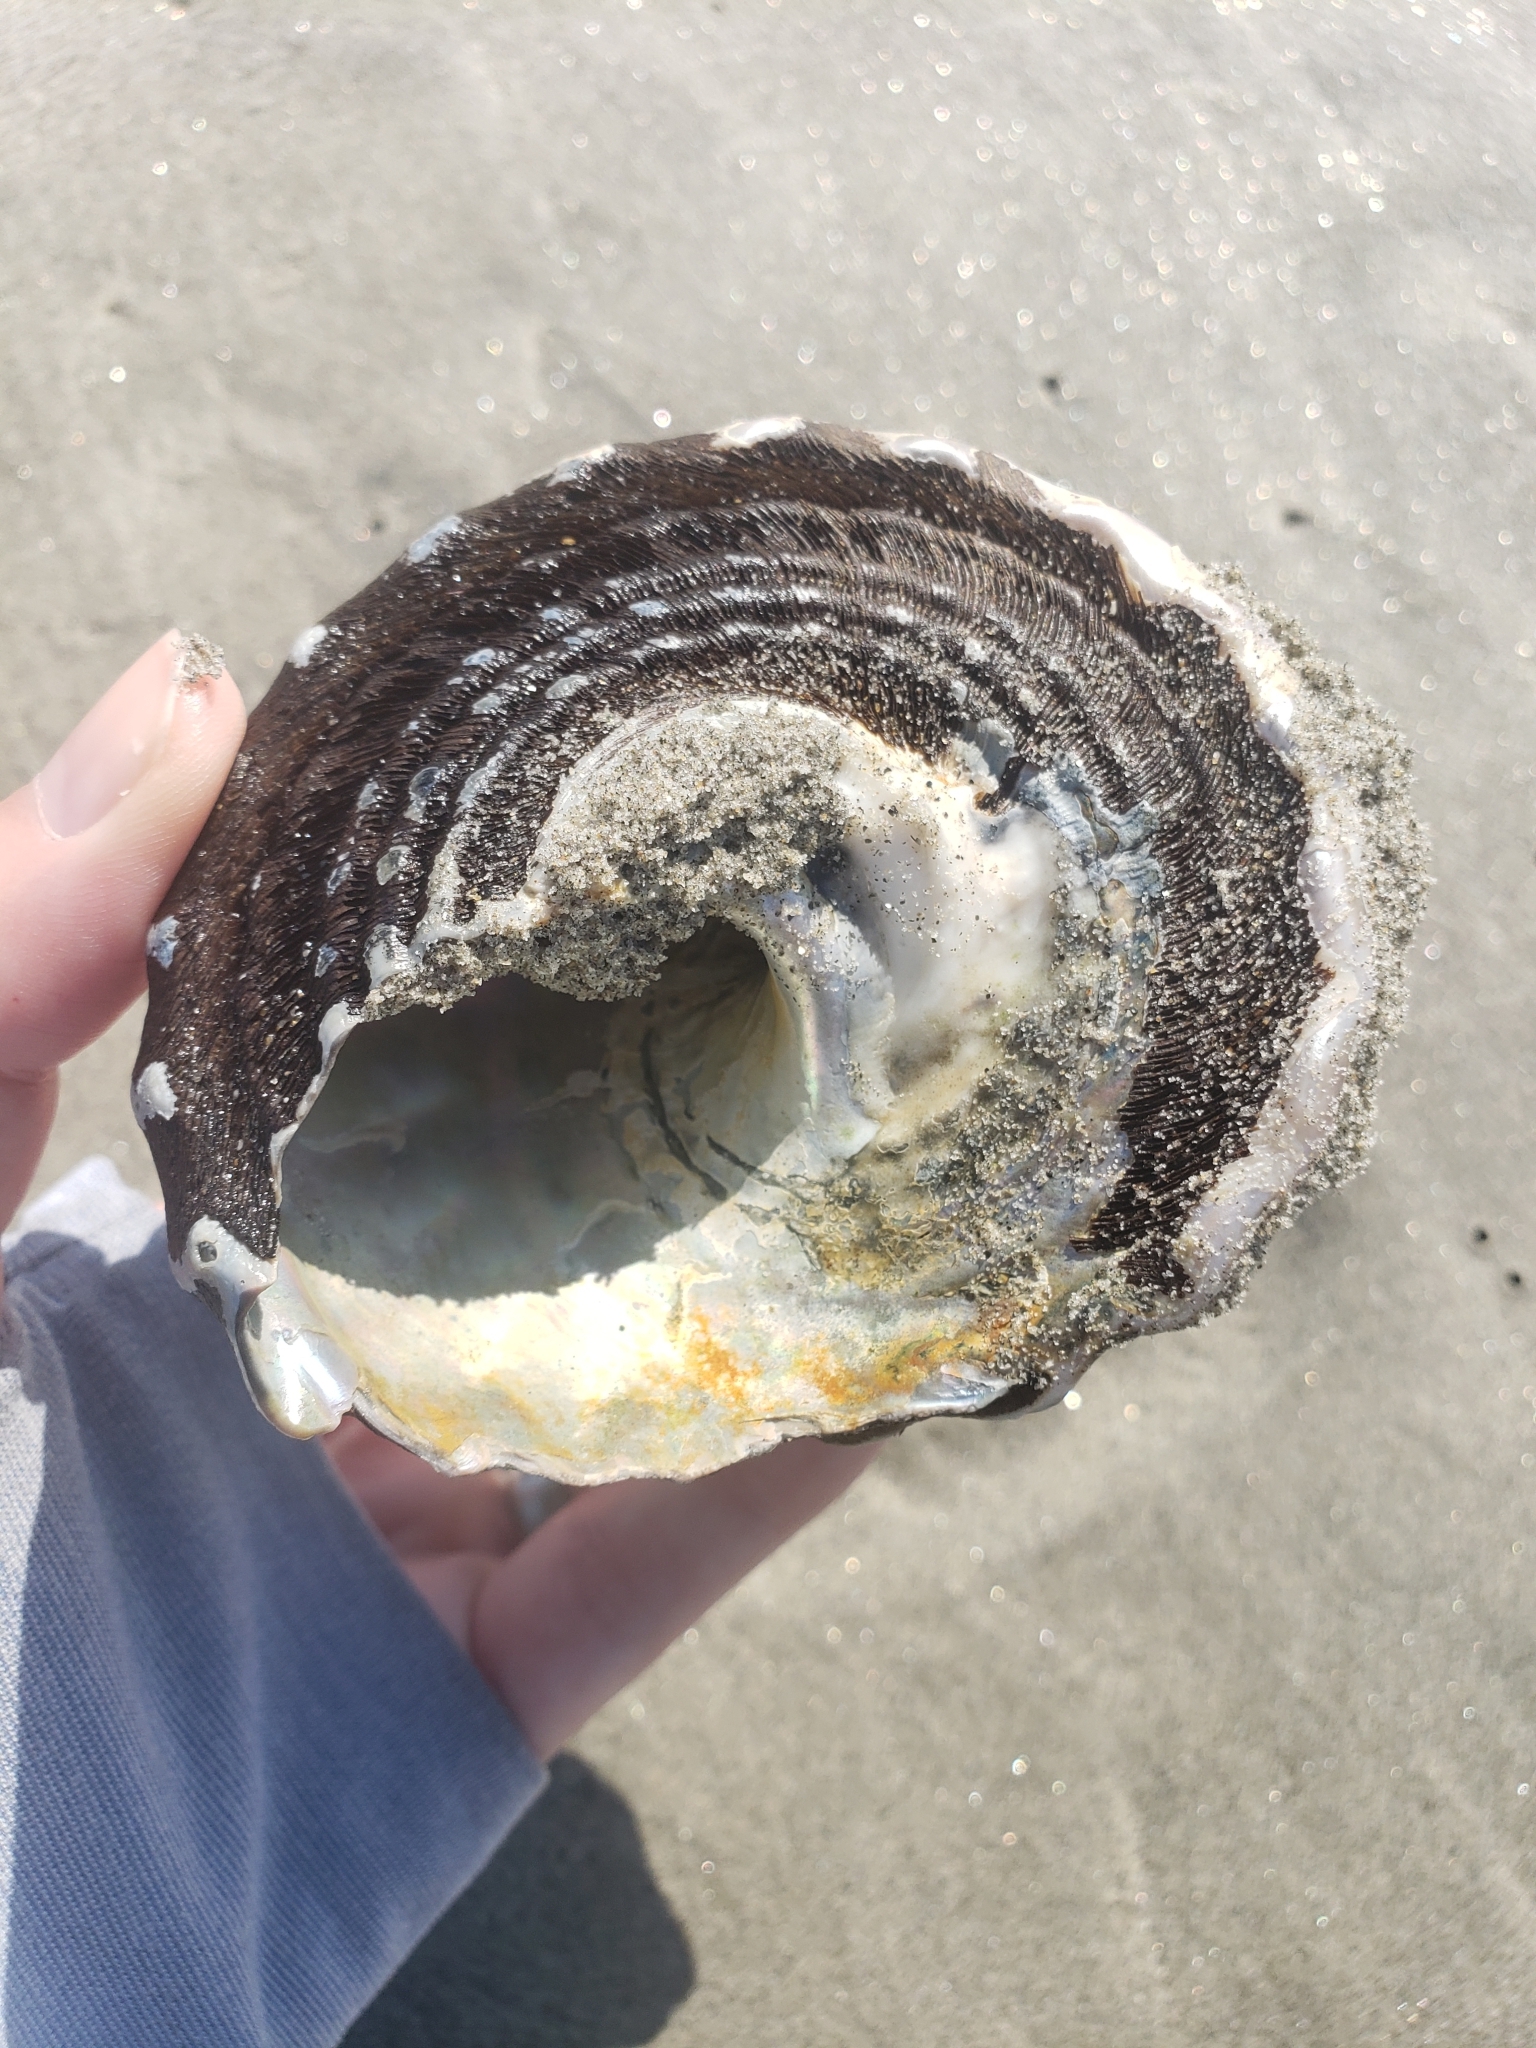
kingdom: Animalia
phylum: Mollusca
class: Gastropoda
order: Trochida
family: Turbinidae
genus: Megastraea
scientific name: Megastraea undosa
